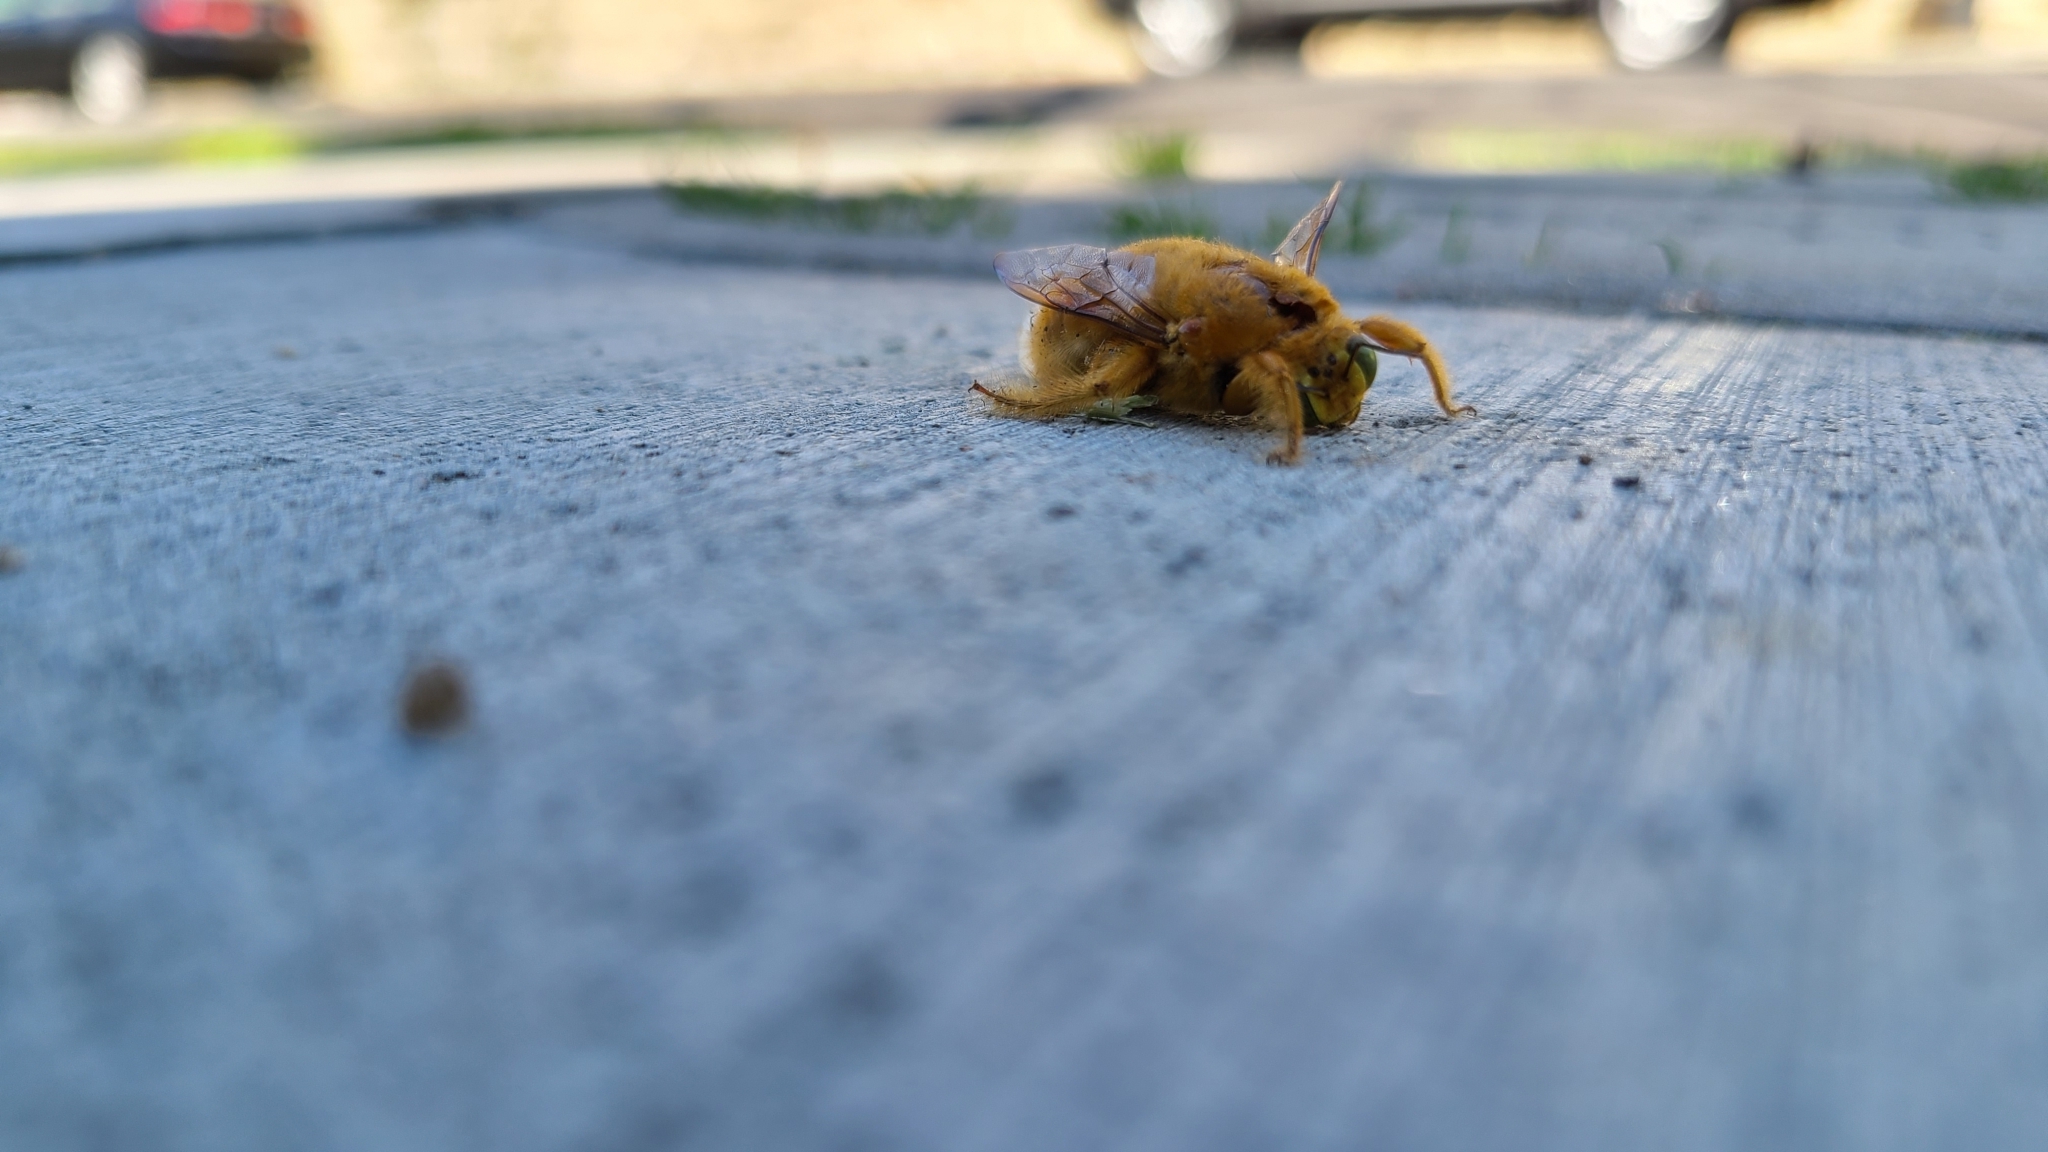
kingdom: Animalia
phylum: Arthropoda
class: Insecta
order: Hymenoptera
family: Apidae
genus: Xylocopa
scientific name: Xylocopa sonorina
